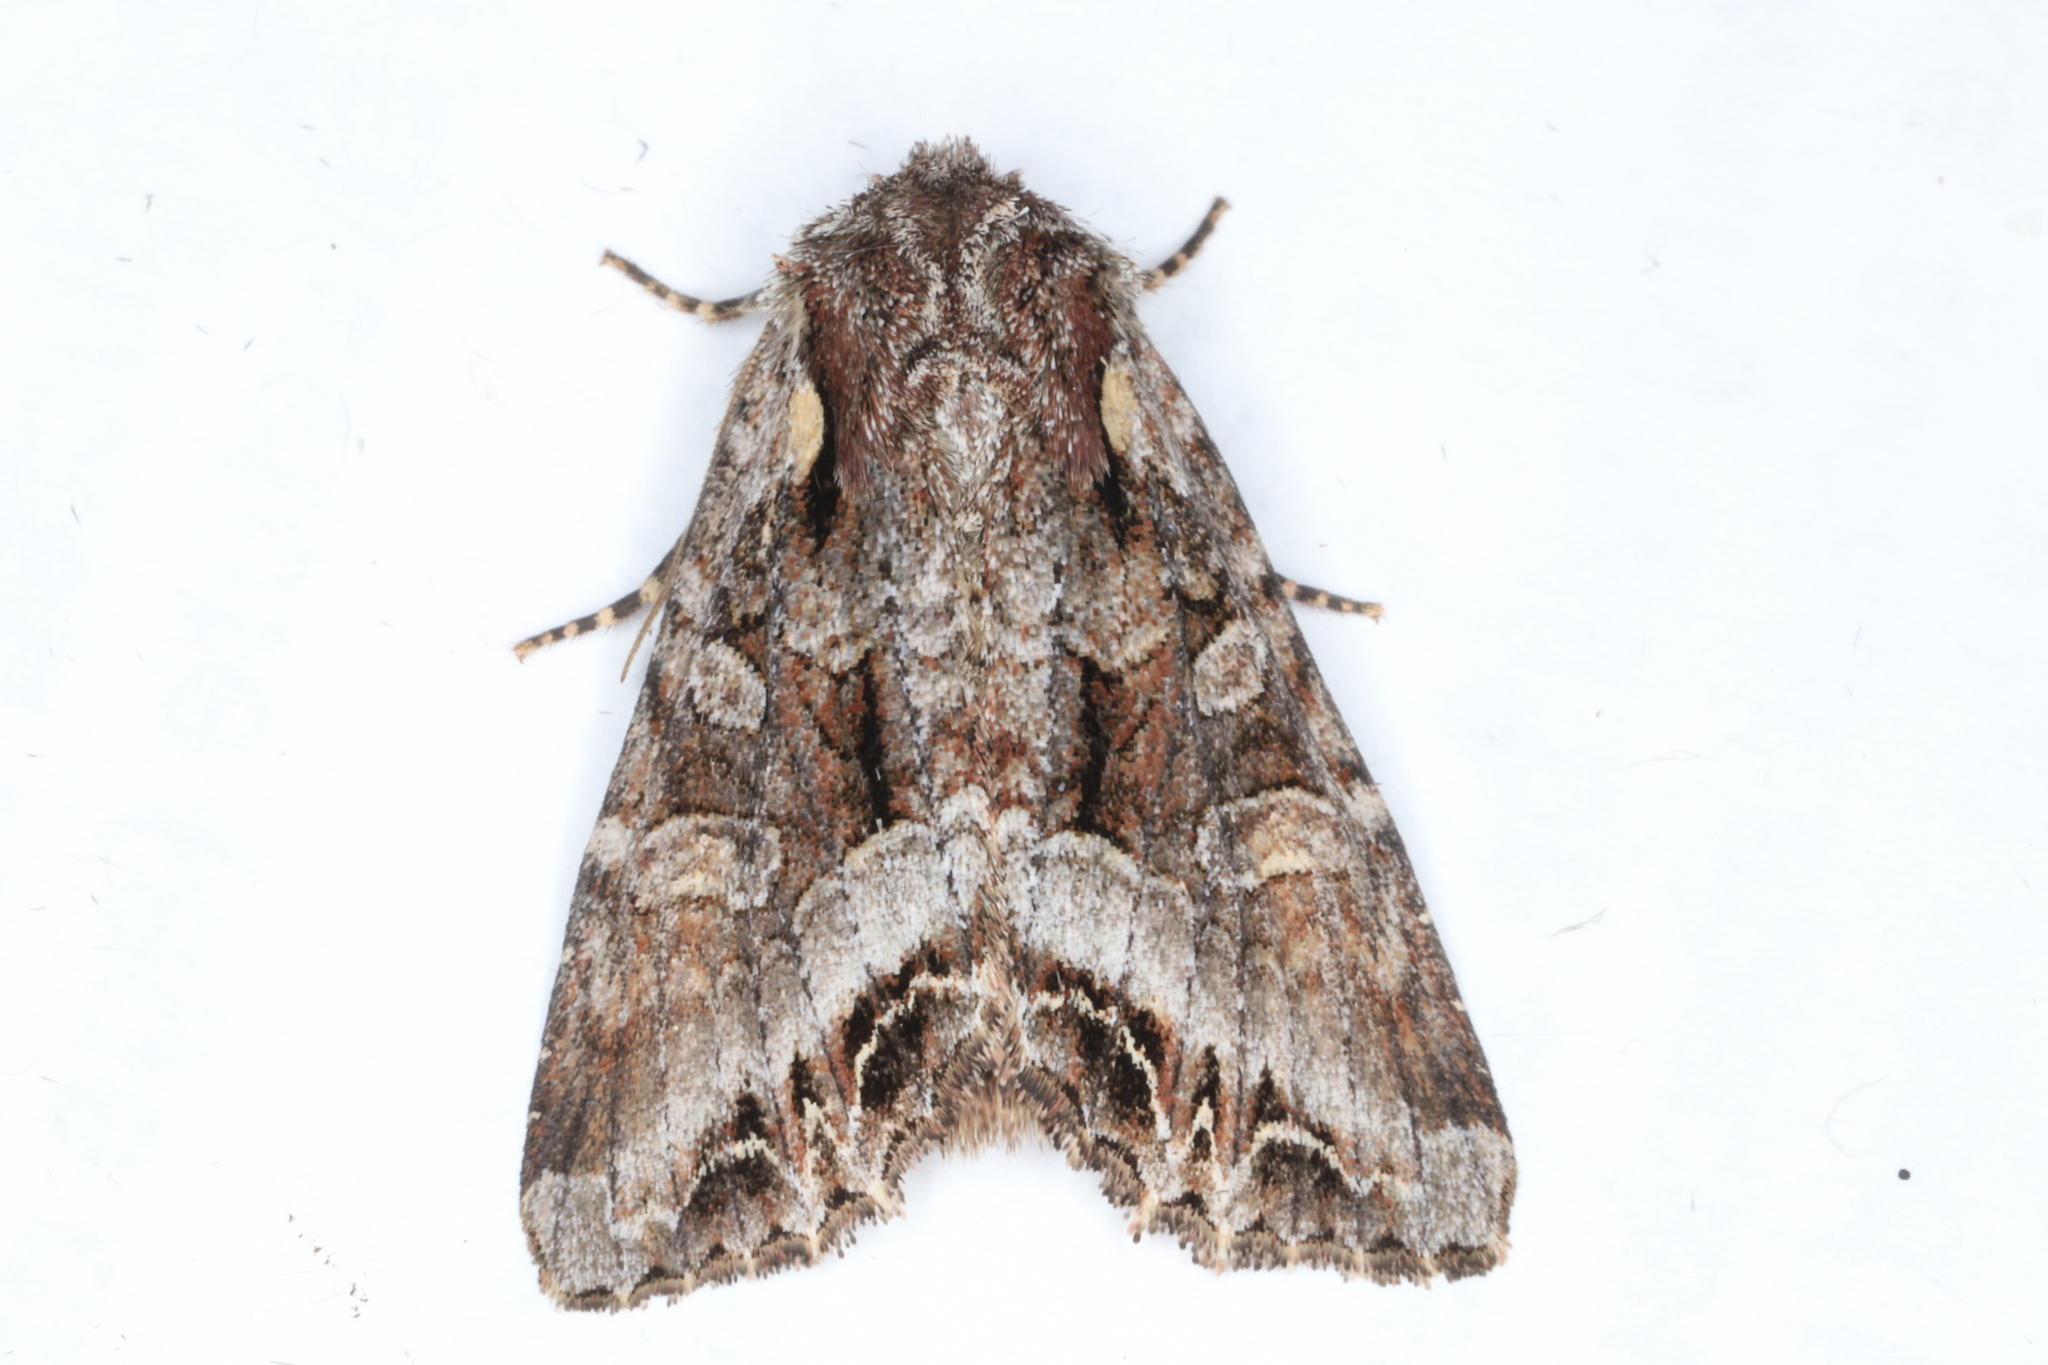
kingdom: Animalia
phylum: Arthropoda
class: Insecta
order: Lepidoptera
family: Noctuidae
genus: Lacanobia
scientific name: Lacanobia grandis
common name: Grand arches moth
